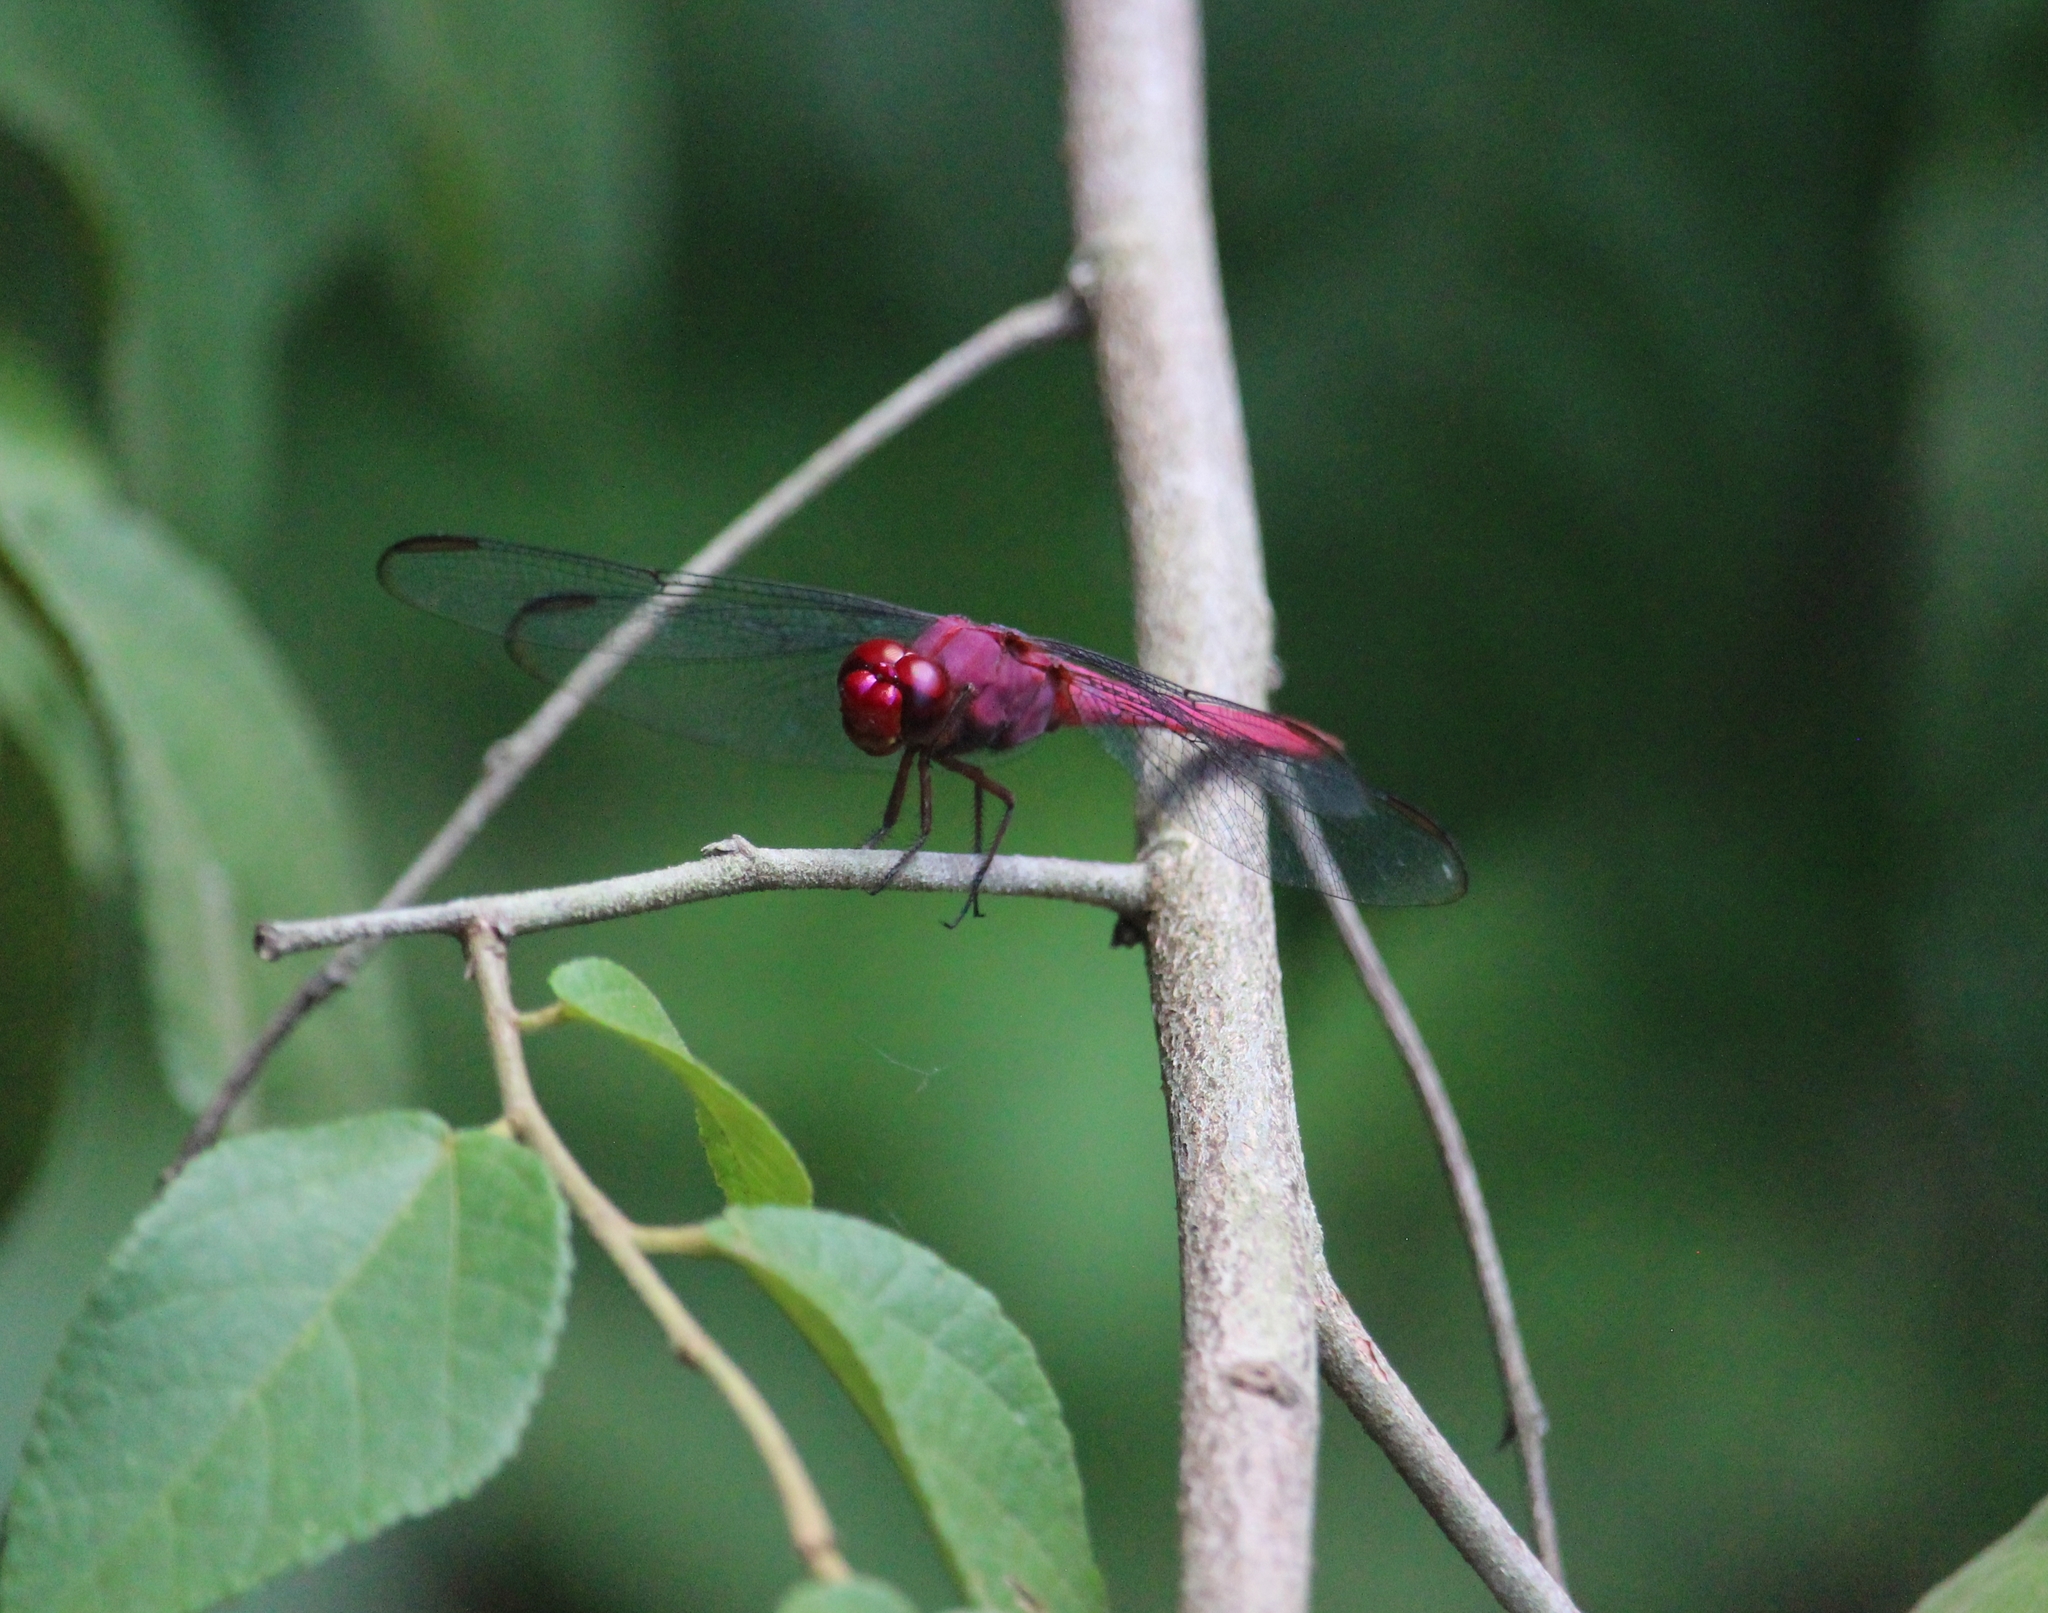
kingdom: Animalia
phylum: Arthropoda
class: Insecta
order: Odonata
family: Libellulidae
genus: Orthemis
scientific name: Orthemis discolor
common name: Carmine skimmer
